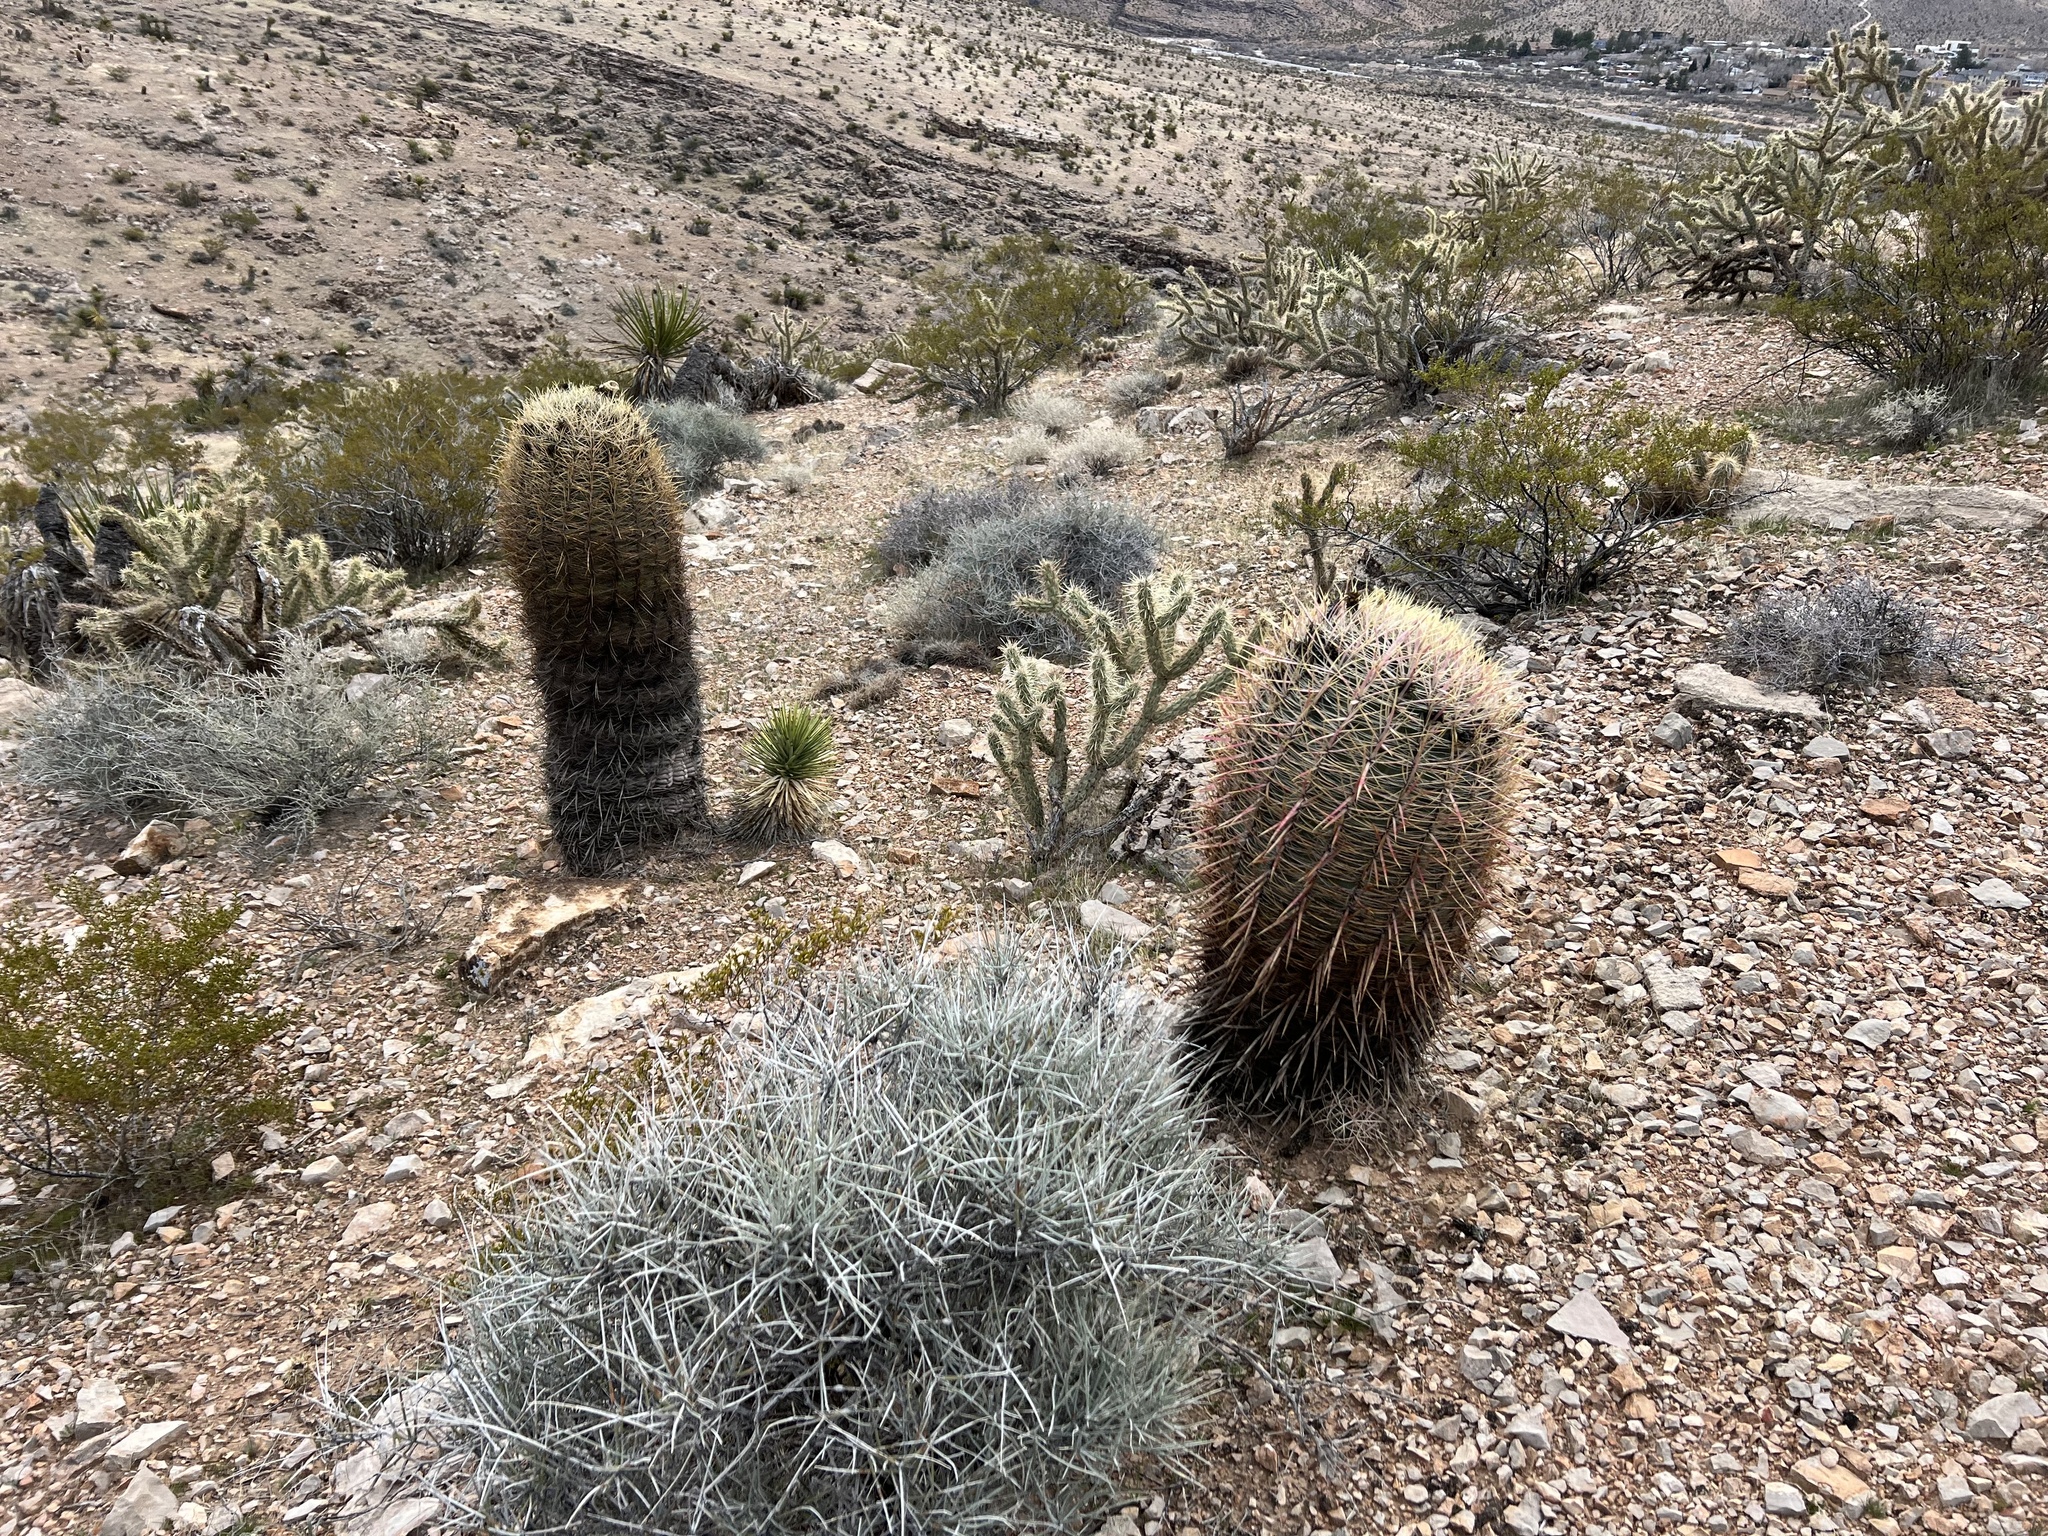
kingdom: Plantae
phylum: Tracheophyta
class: Magnoliopsida
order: Caryophyllales
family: Cactaceae
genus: Ferocactus
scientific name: Ferocactus cylindraceus
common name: California barrel cactus
